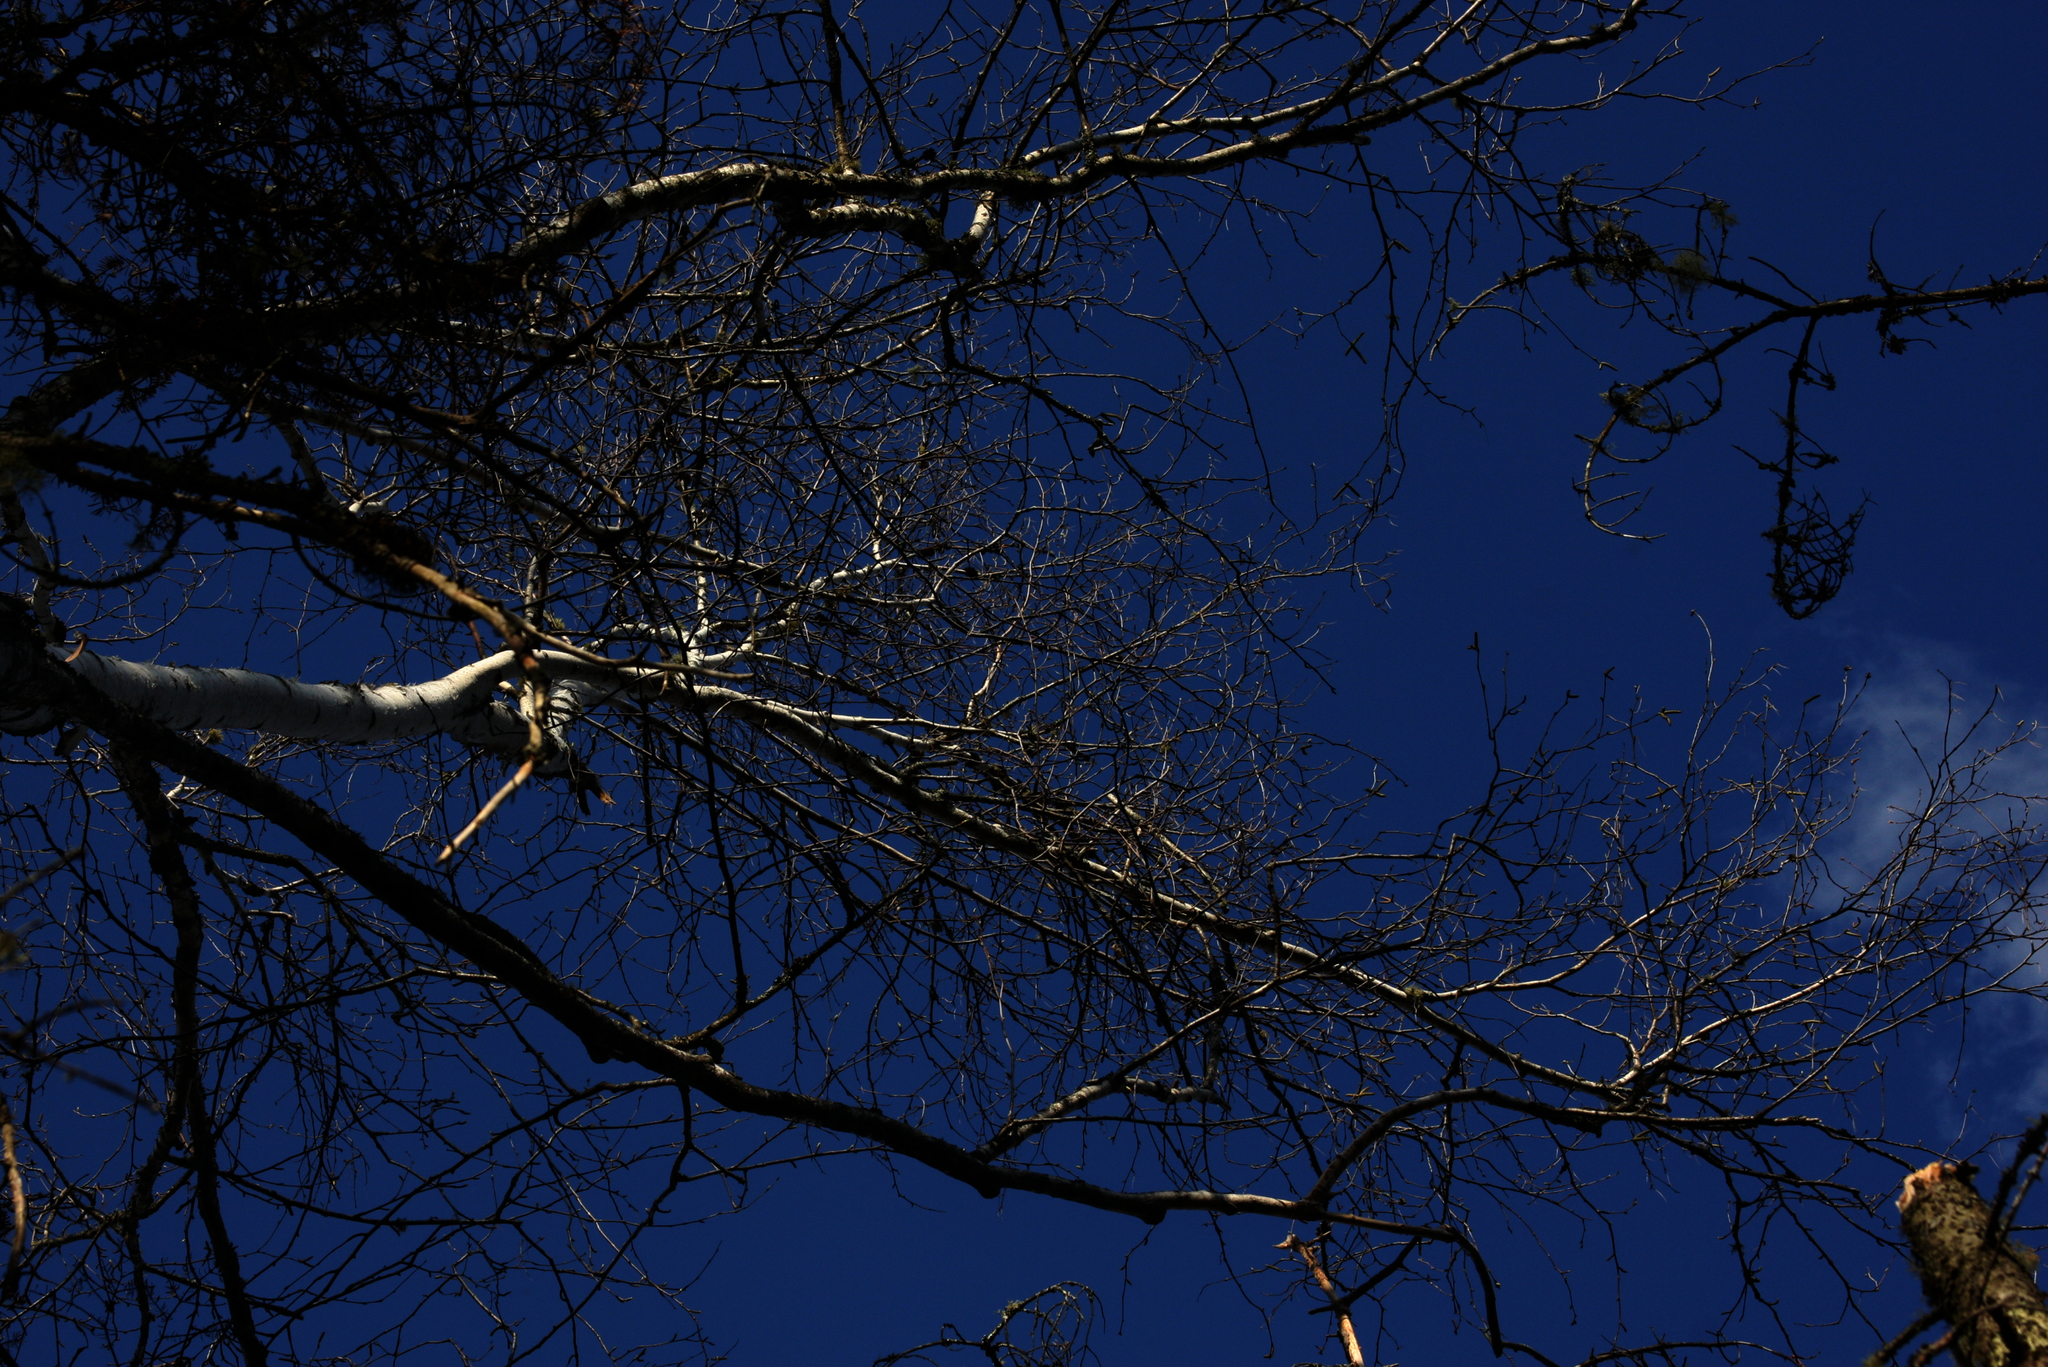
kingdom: Plantae
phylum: Tracheophyta
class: Magnoliopsida
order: Fagales
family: Betulaceae
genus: Betula
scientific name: Betula papyrifera
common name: Paper birch
